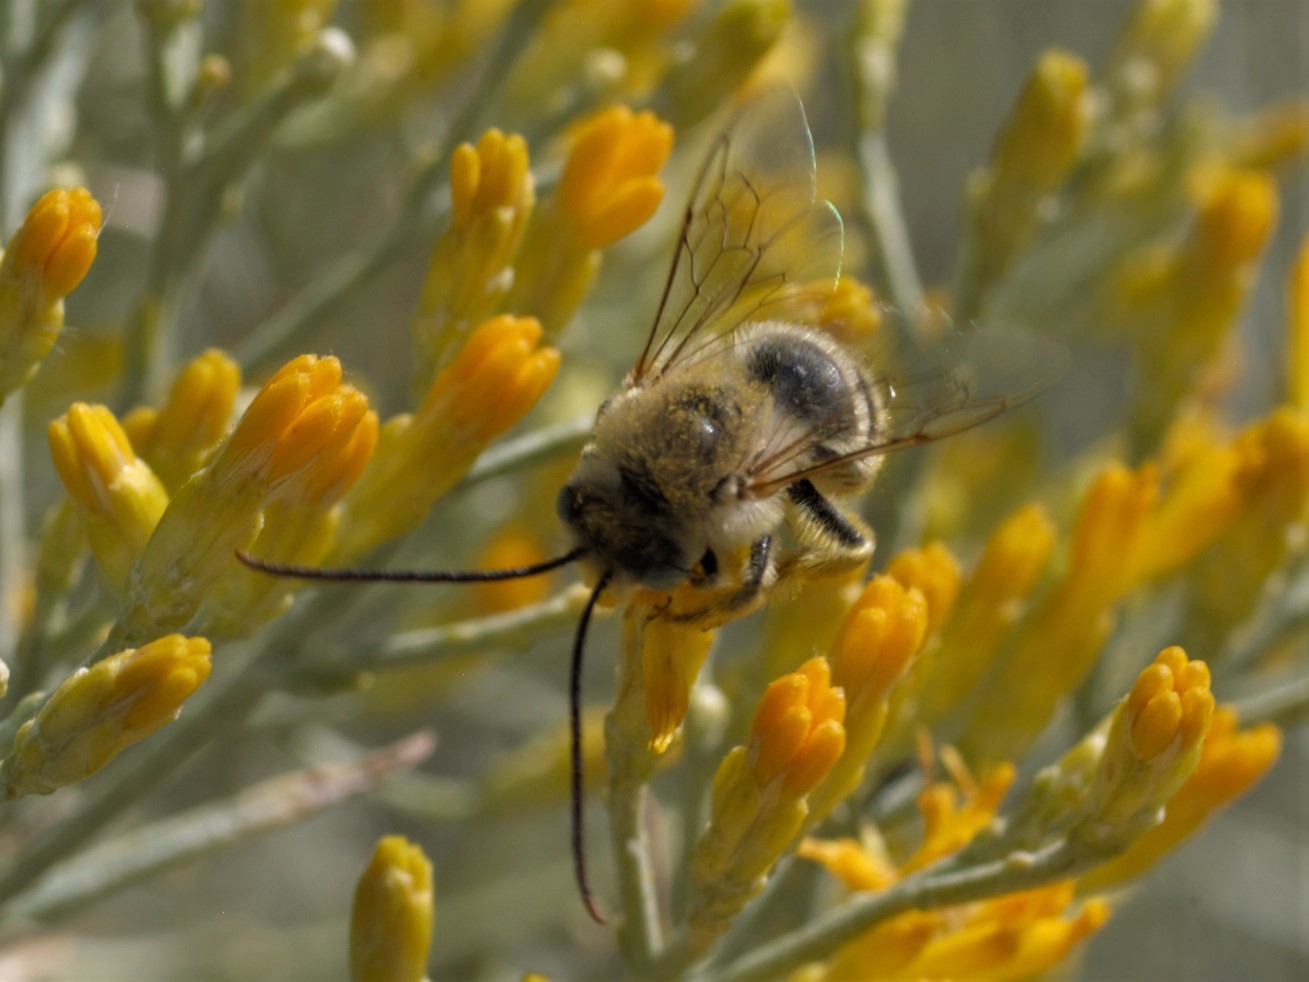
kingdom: Animalia
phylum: Arthropoda
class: Insecta
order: Hymenoptera
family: Apidae
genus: Melissodes
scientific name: Melissodes
